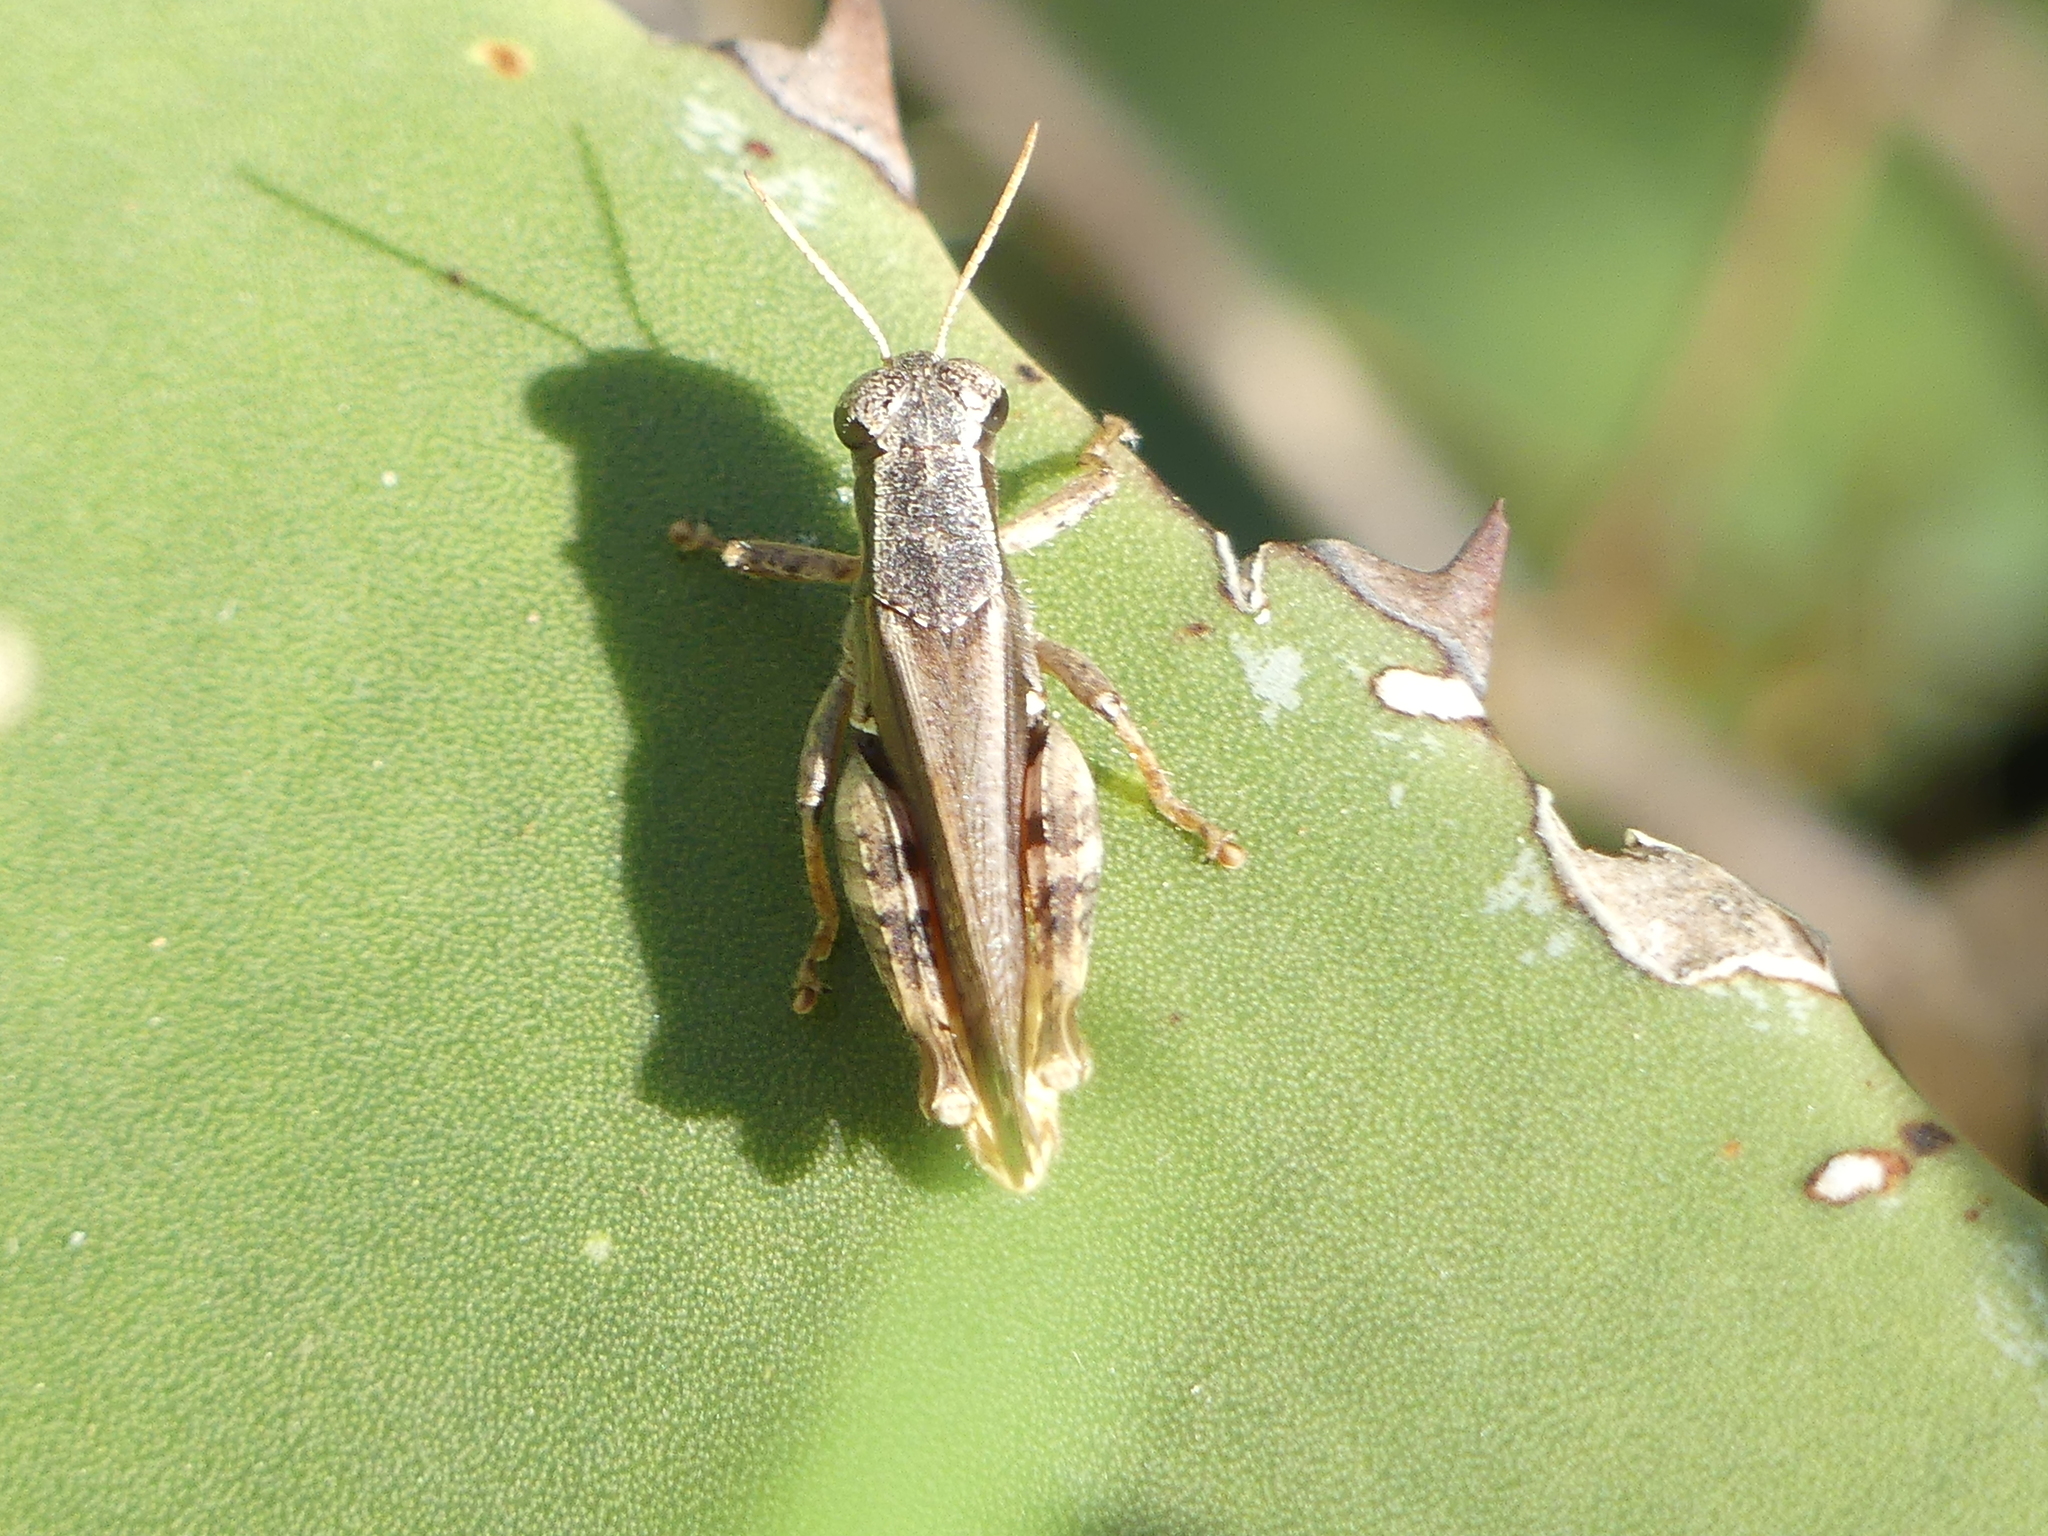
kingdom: Animalia
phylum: Arthropoda
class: Insecta
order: Orthoptera
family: Acrididae
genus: Aidemona
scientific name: Aidemona azteca
